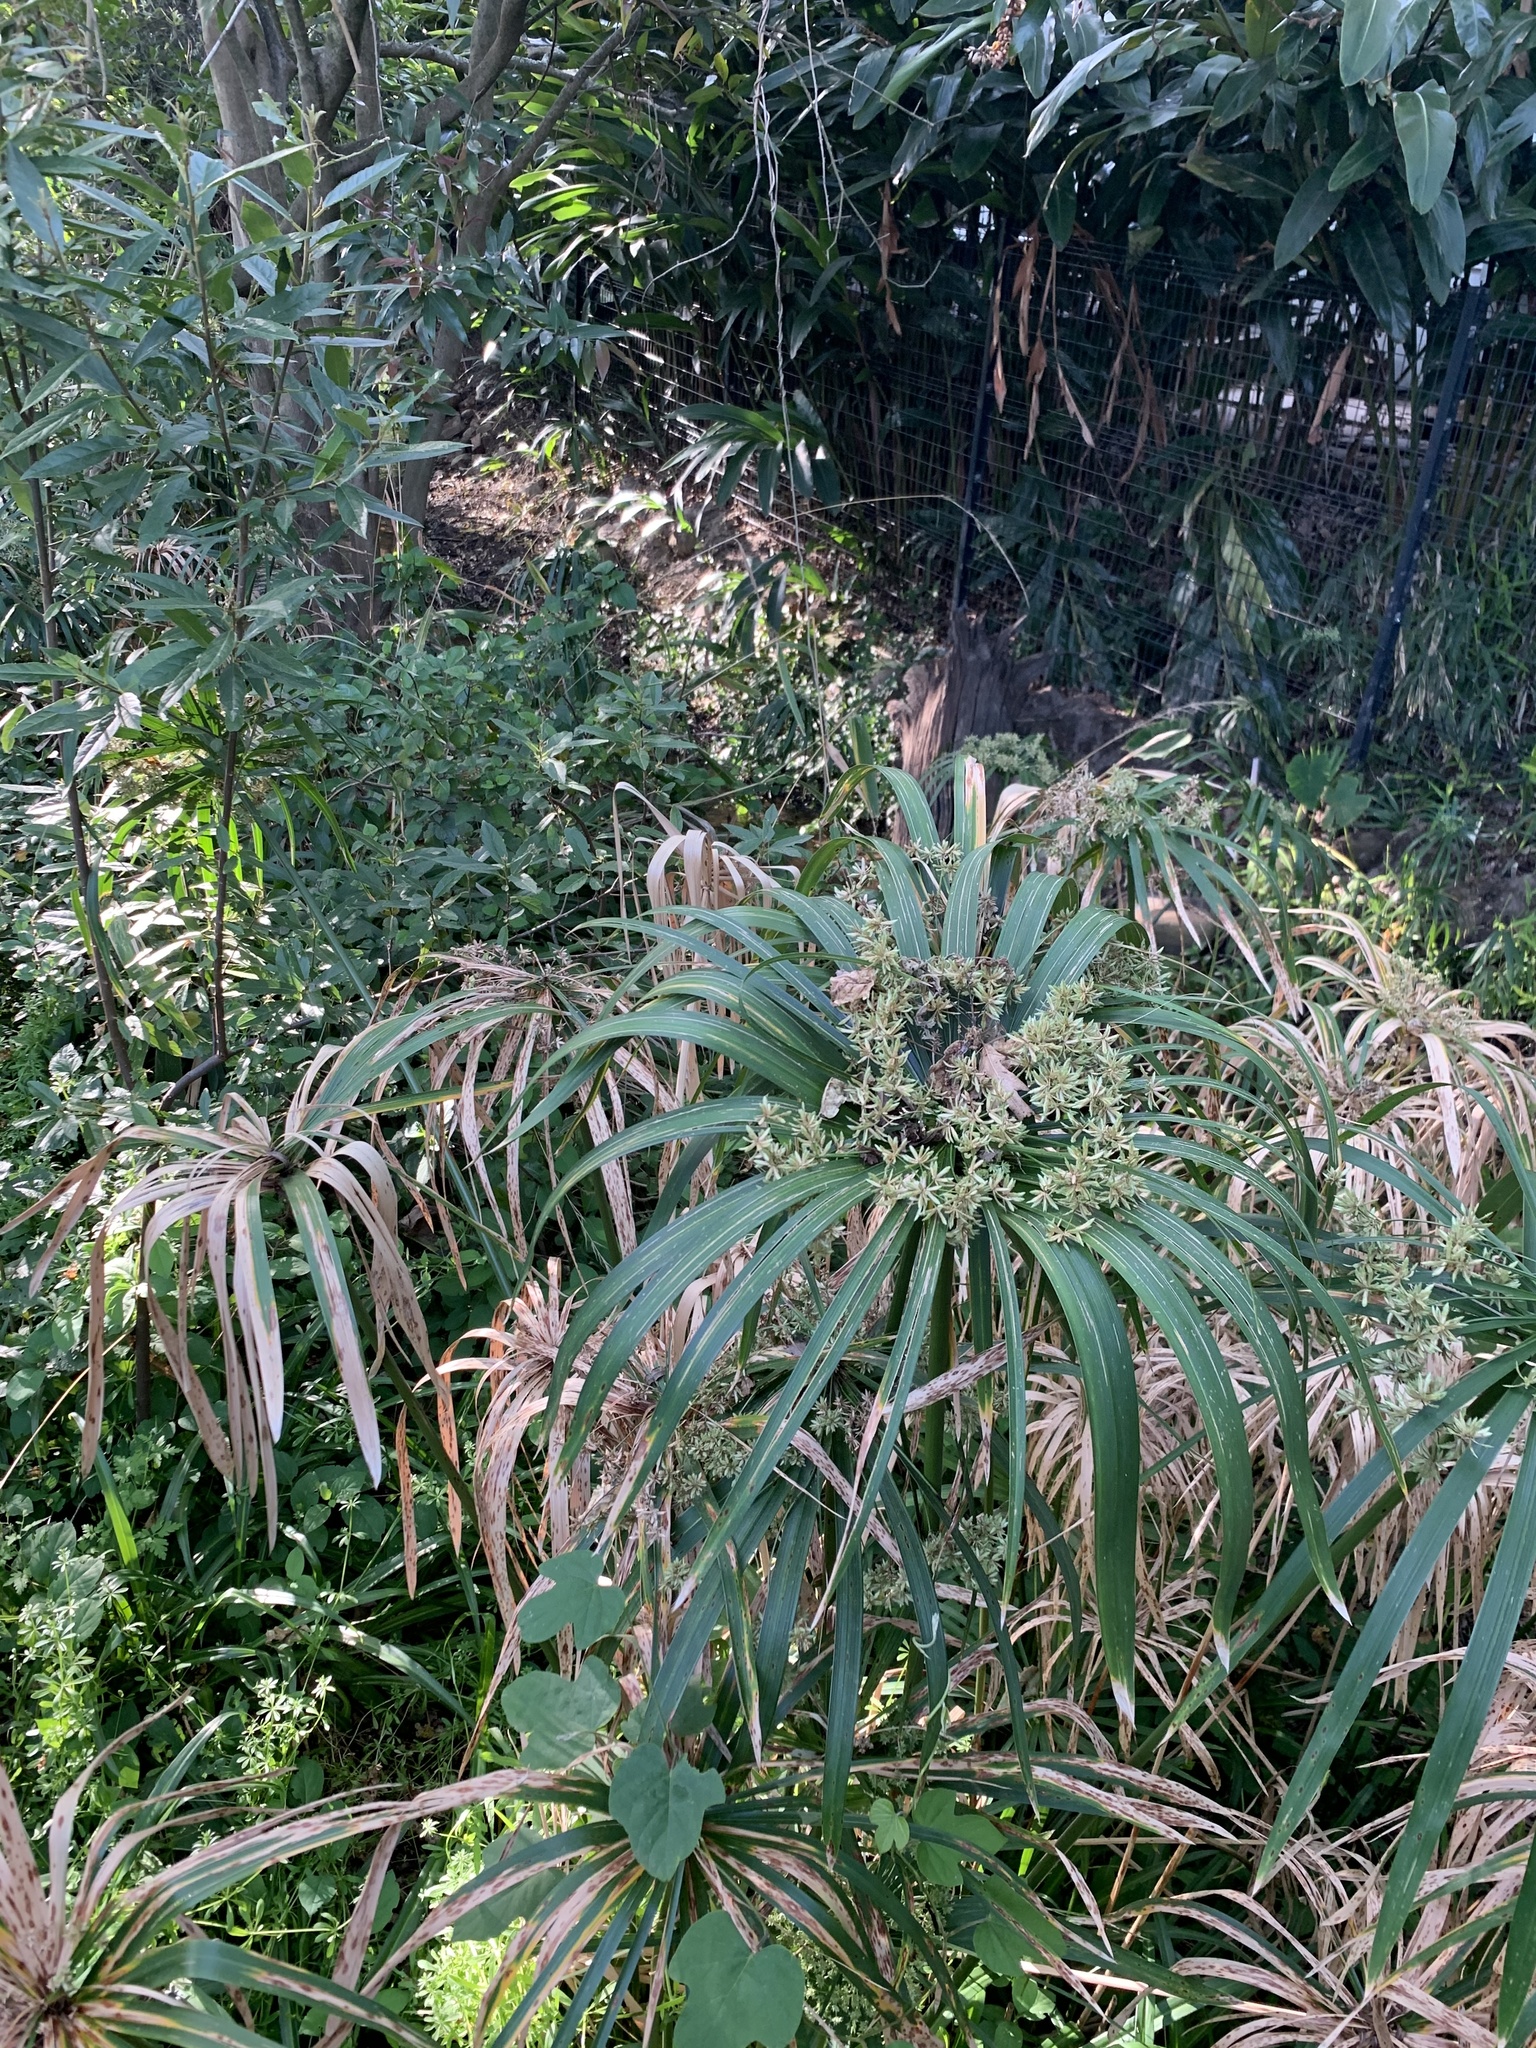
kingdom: Plantae
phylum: Tracheophyta
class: Liliopsida
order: Poales
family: Cyperaceae
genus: Cyperus
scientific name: Cyperus textilis
